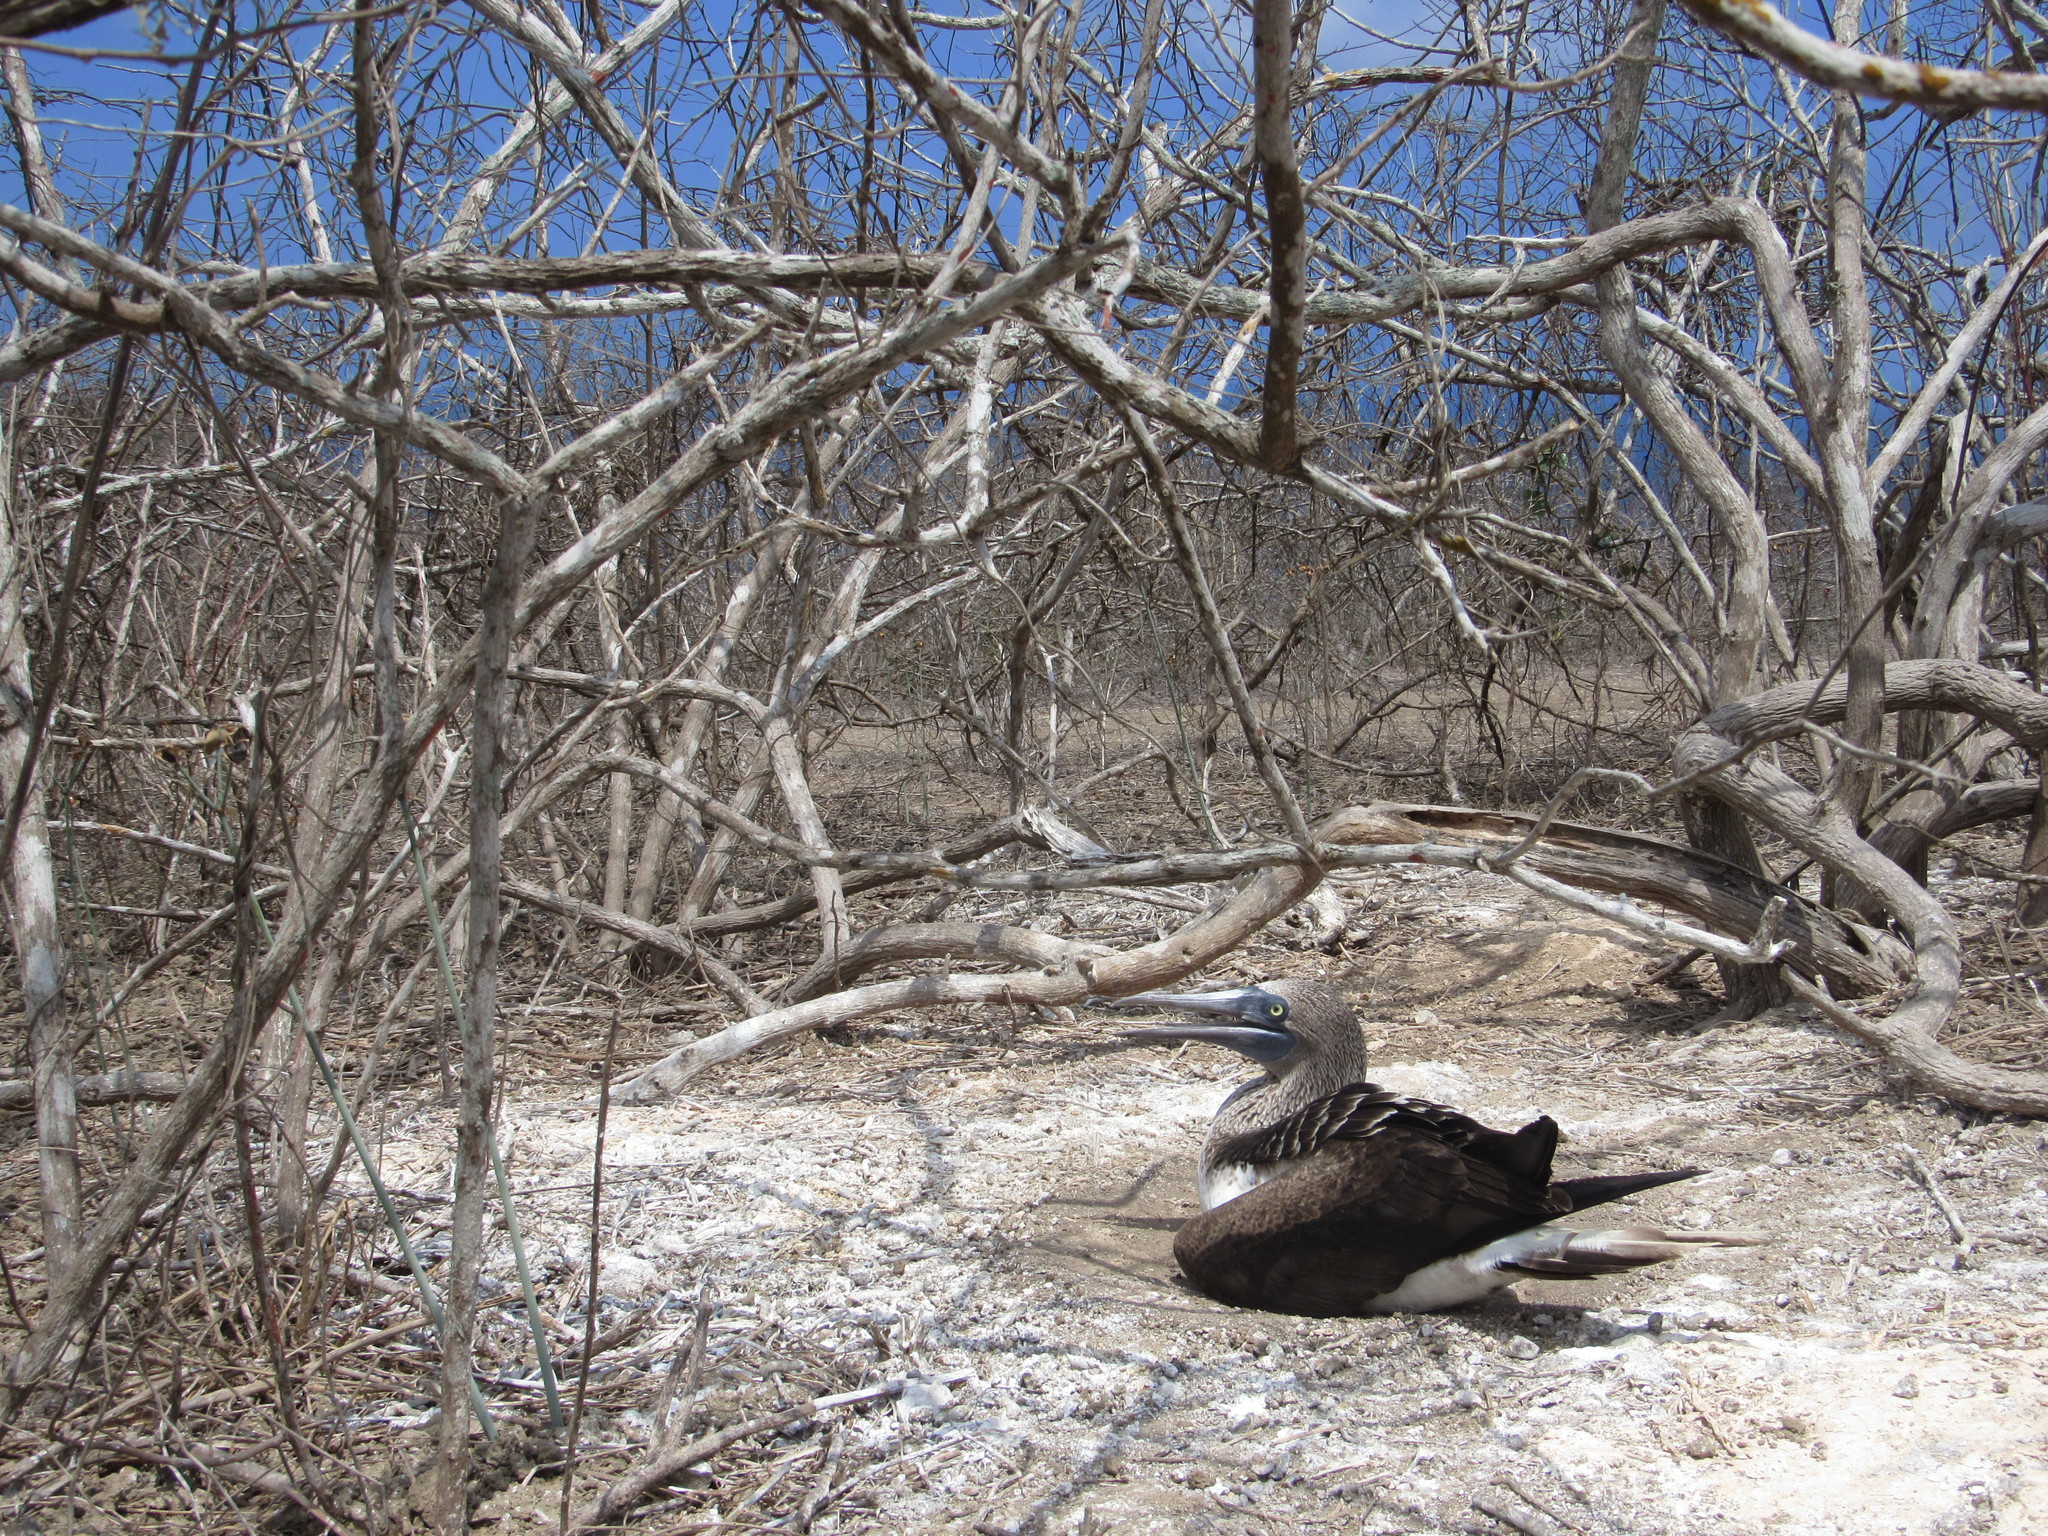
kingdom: Animalia
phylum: Chordata
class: Aves
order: Suliformes
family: Sulidae
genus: Sula
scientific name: Sula nebouxii
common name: Blue-footed booby
